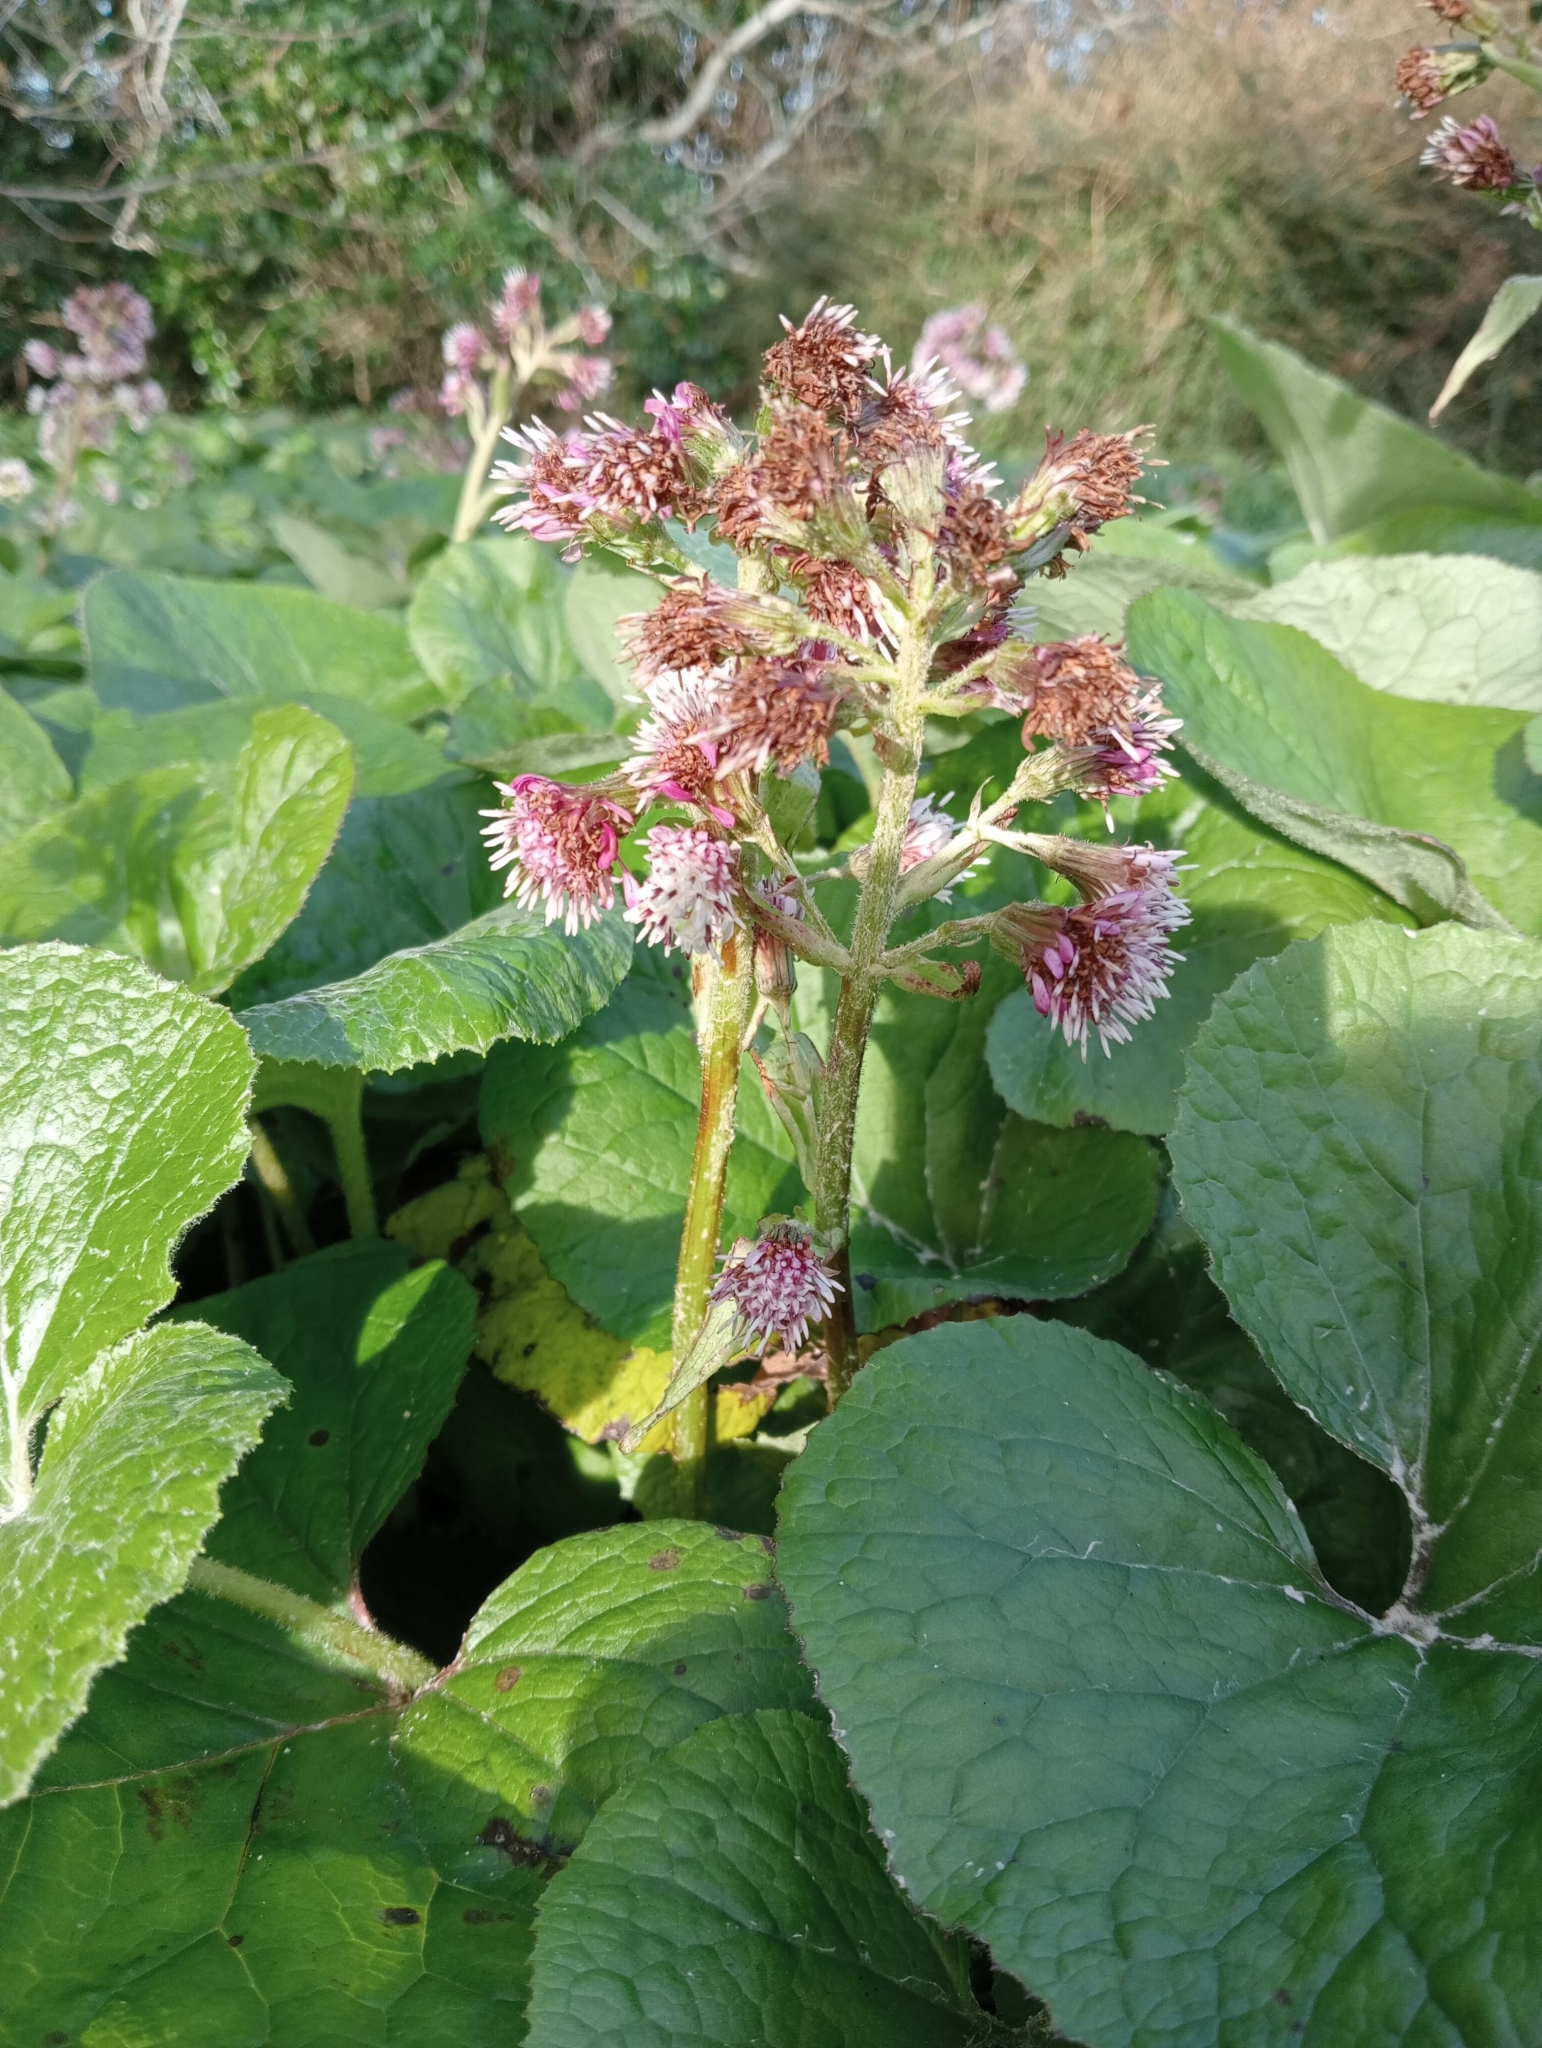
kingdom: Plantae
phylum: Tracheophyta
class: Magnoliopsida
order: Asterales
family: Asteraceae
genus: Petasites
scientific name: Petasites pyrenaicus
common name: Winter heliotrope
